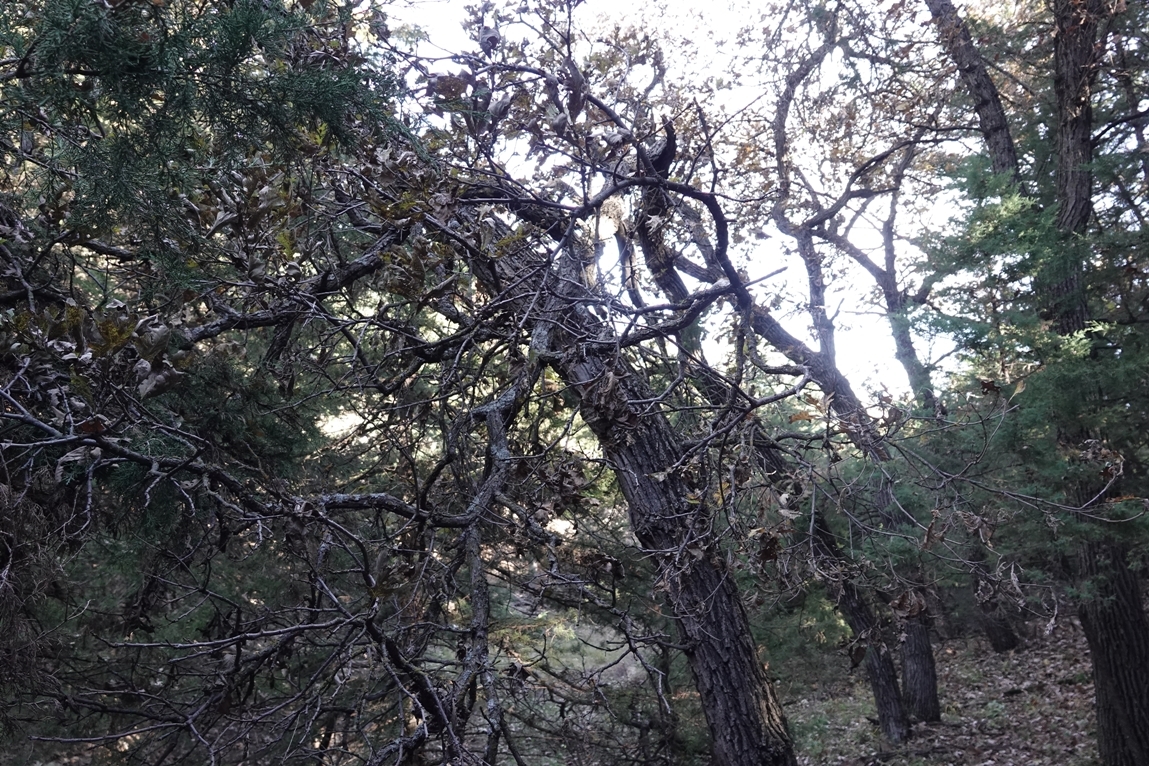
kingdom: Plantae
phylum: Tracheophyta
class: Magnoliopsida
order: Fagales
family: Fagaceae
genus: Quercus
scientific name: Quercus macrocarpa
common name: Bur oak
